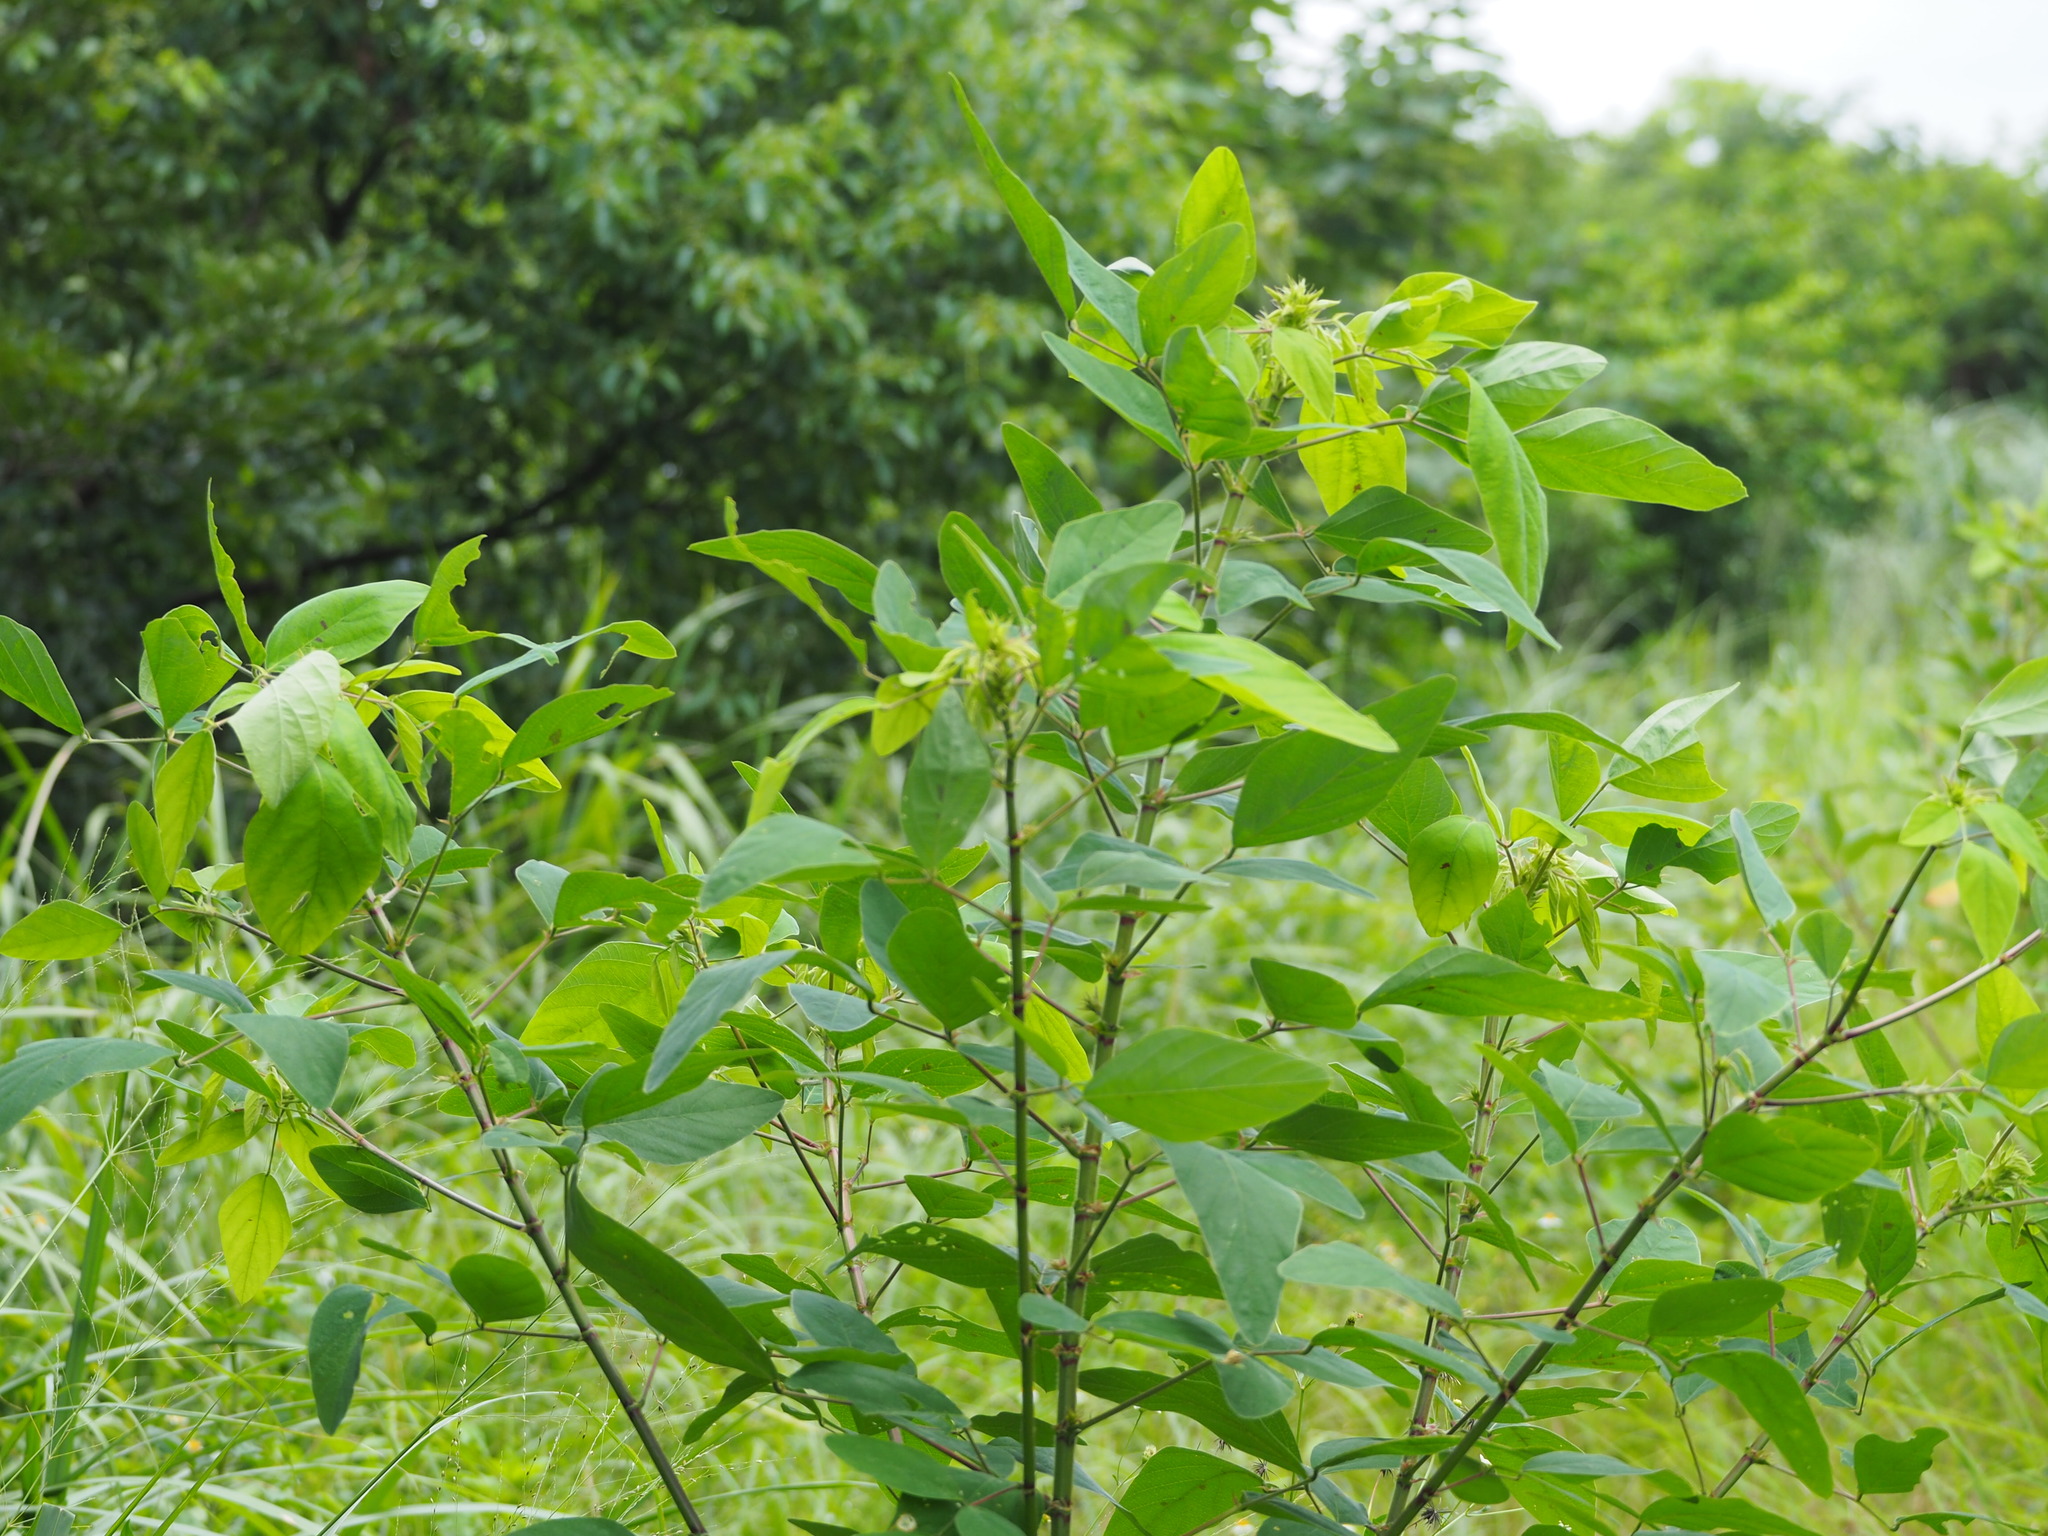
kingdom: Plantae
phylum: Tracheophyta
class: Magnoliopsida
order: Fabales
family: Fabaceae
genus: Desmodium
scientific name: Desmodium tortuosum
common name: Dixie ticktrefoil
